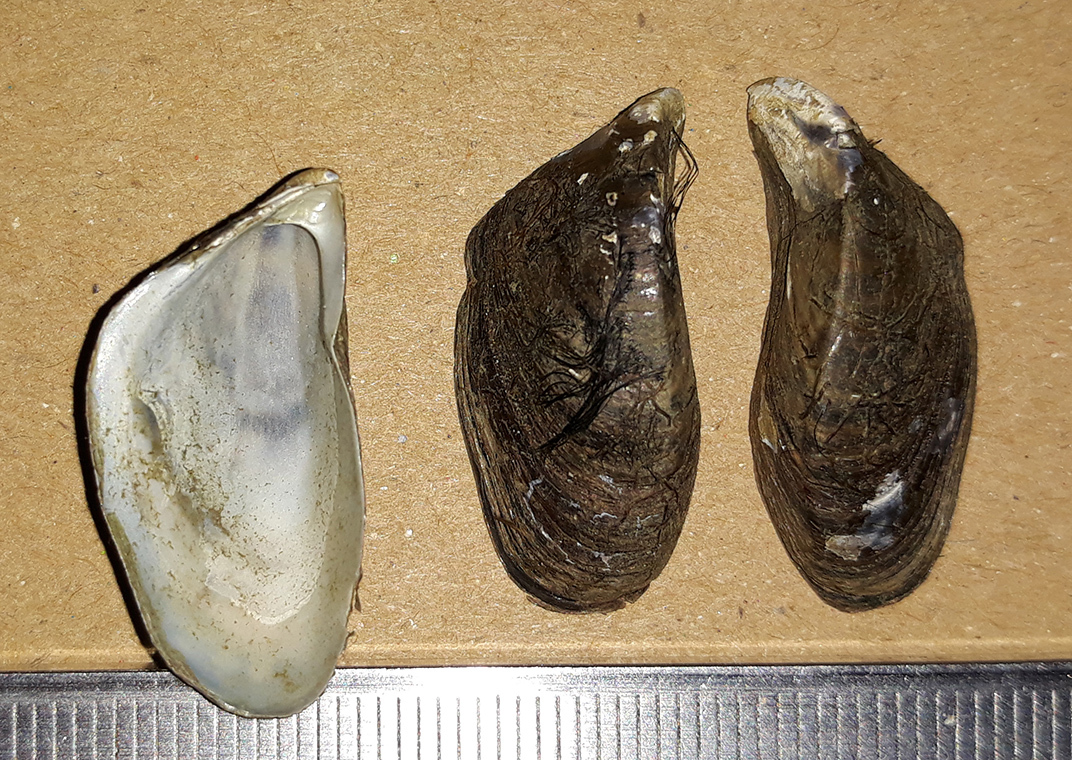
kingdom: Animalia
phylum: Mollusca
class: Bivalvia
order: Myida
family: Dreissenidae
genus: Dreissena
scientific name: Dreissena polymorpha
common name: Zebra mussel
